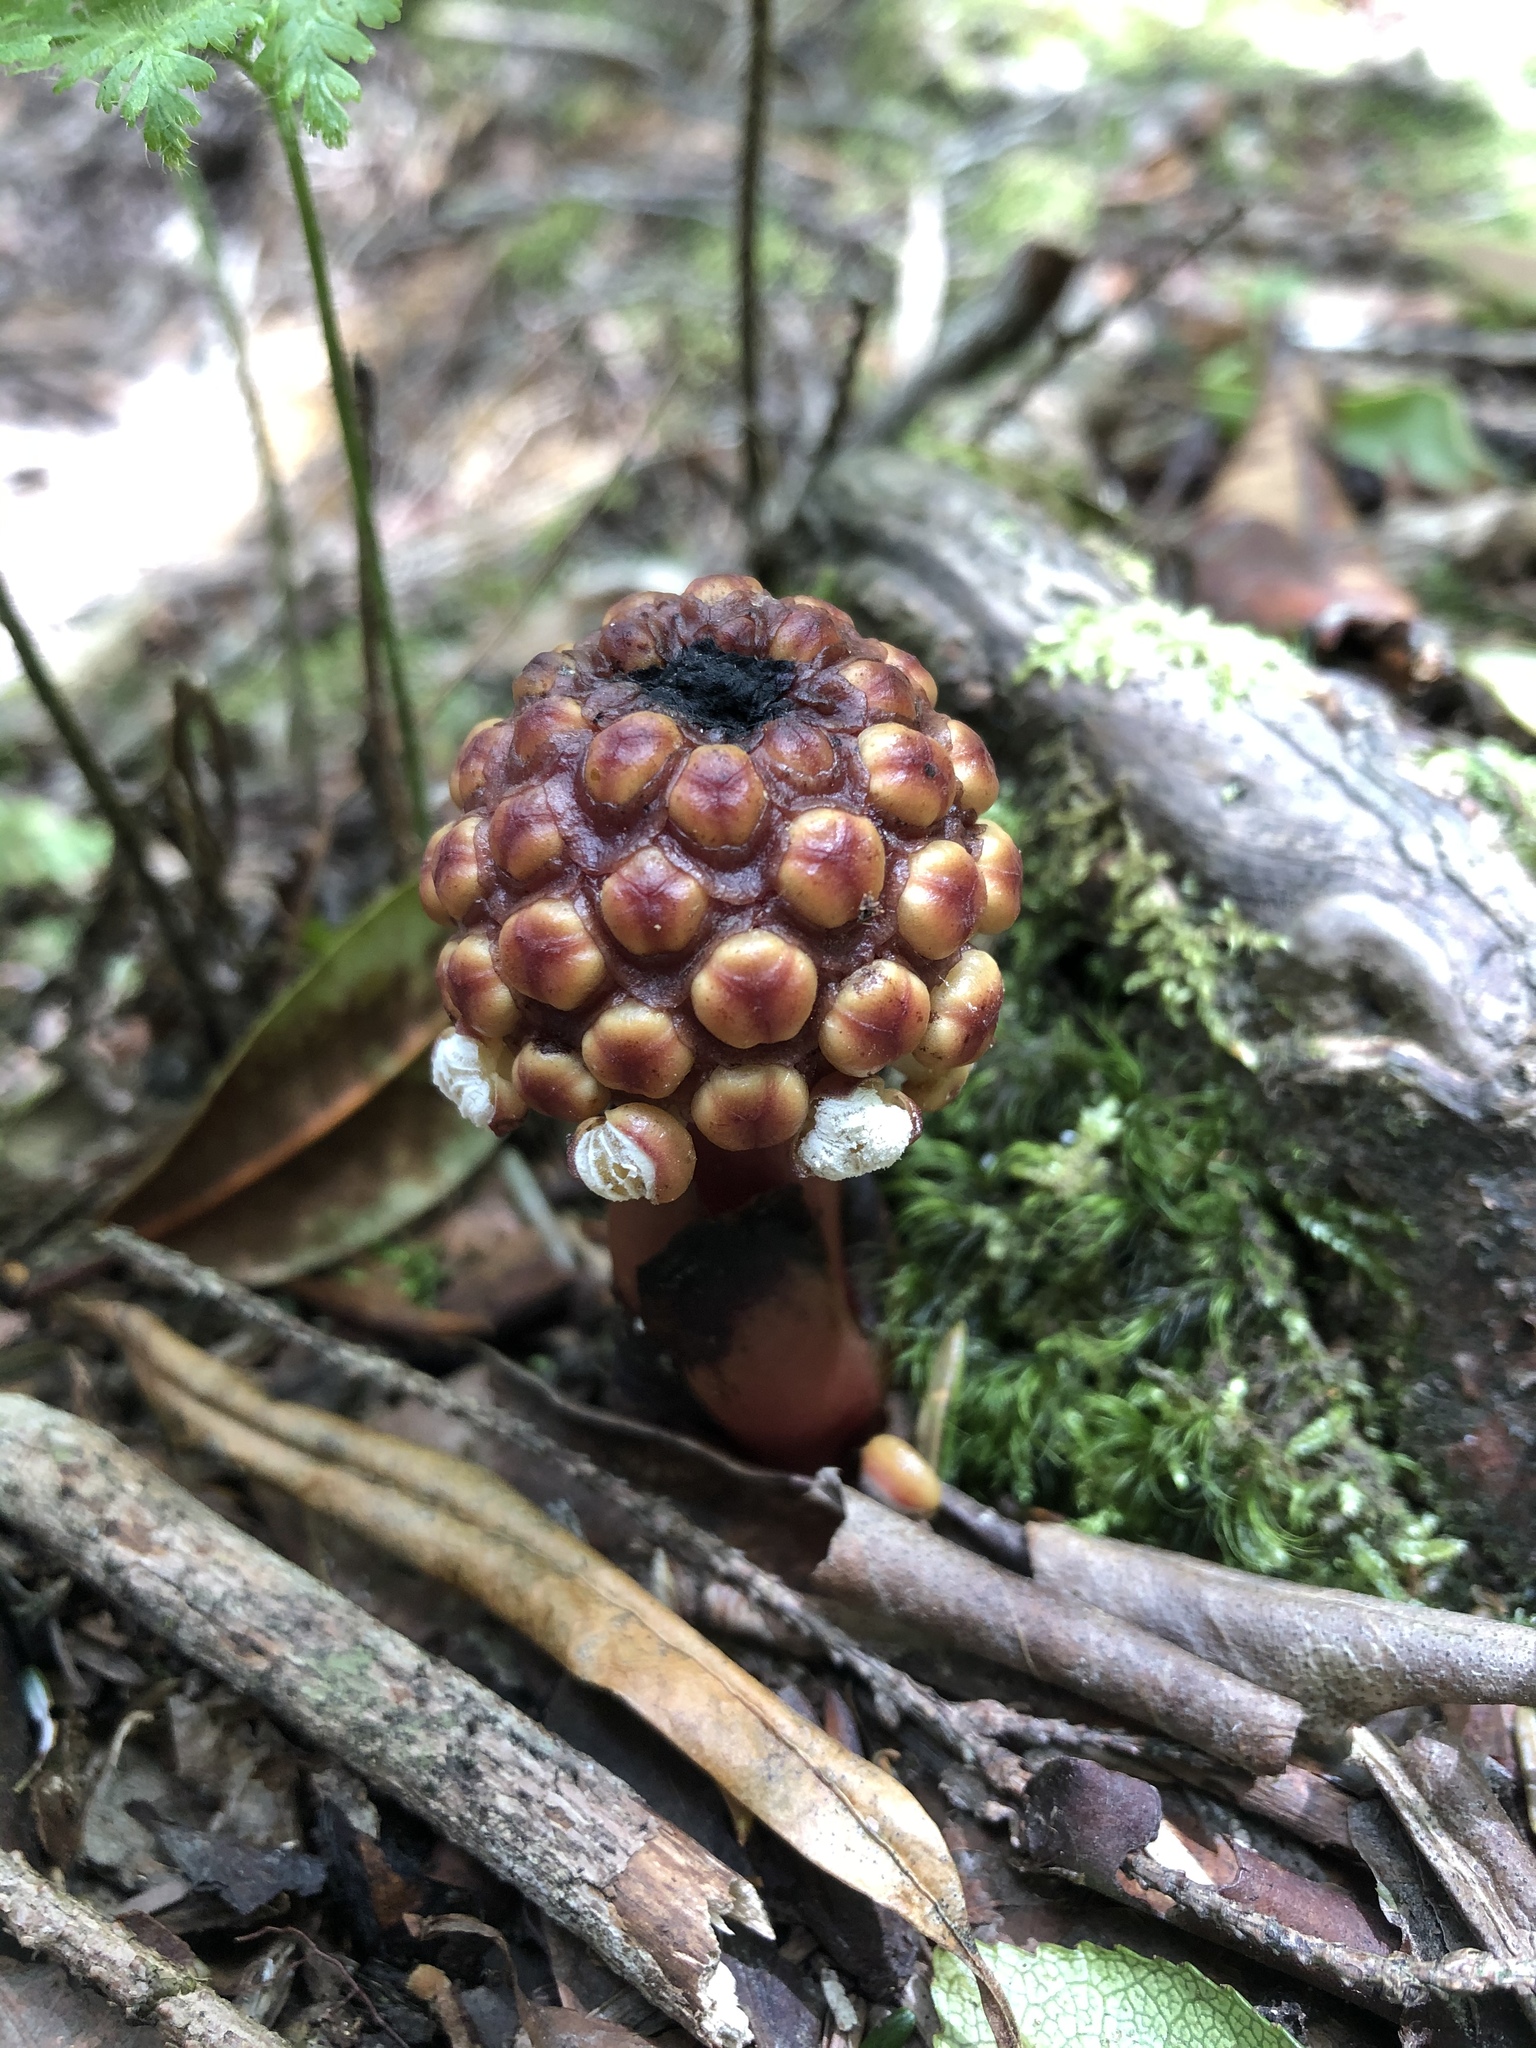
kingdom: Plantae
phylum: Tracheophyta
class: Magnoliopsida
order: Santalales
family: Balanophoraceae
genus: Balanophora
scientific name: Balanophora harlandii
